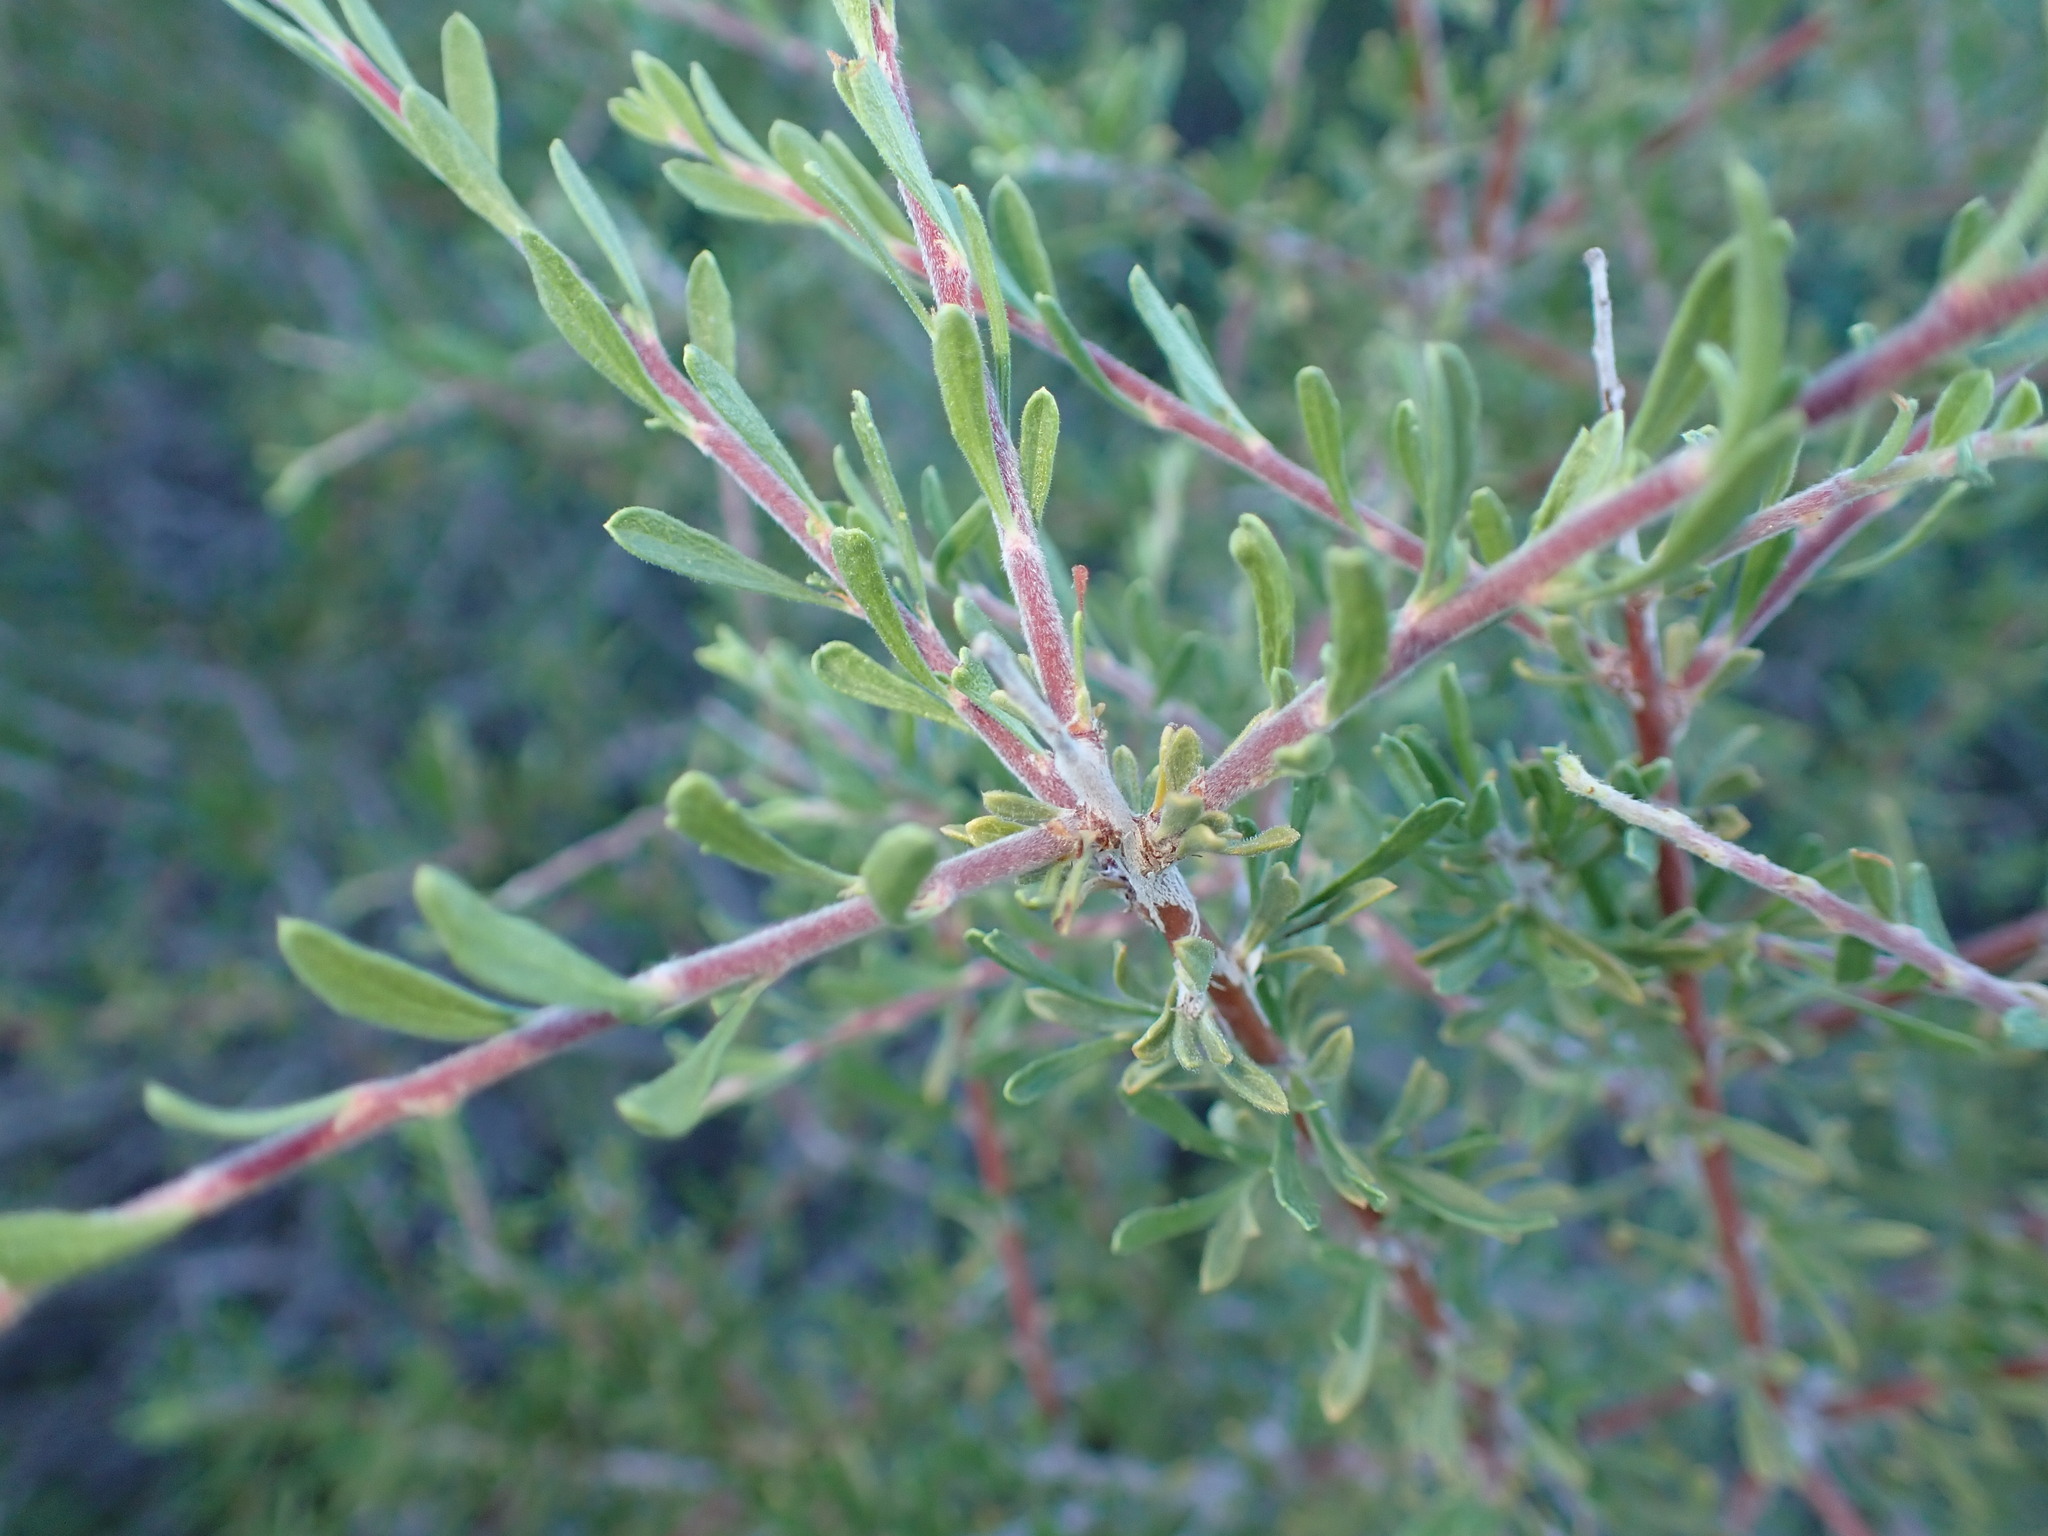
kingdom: Plantae
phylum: Tracheophyta
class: Magnoliopsida
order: Rosales
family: Rosaceae
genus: Prunus
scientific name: Prunus fasciculata
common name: Desert almond
